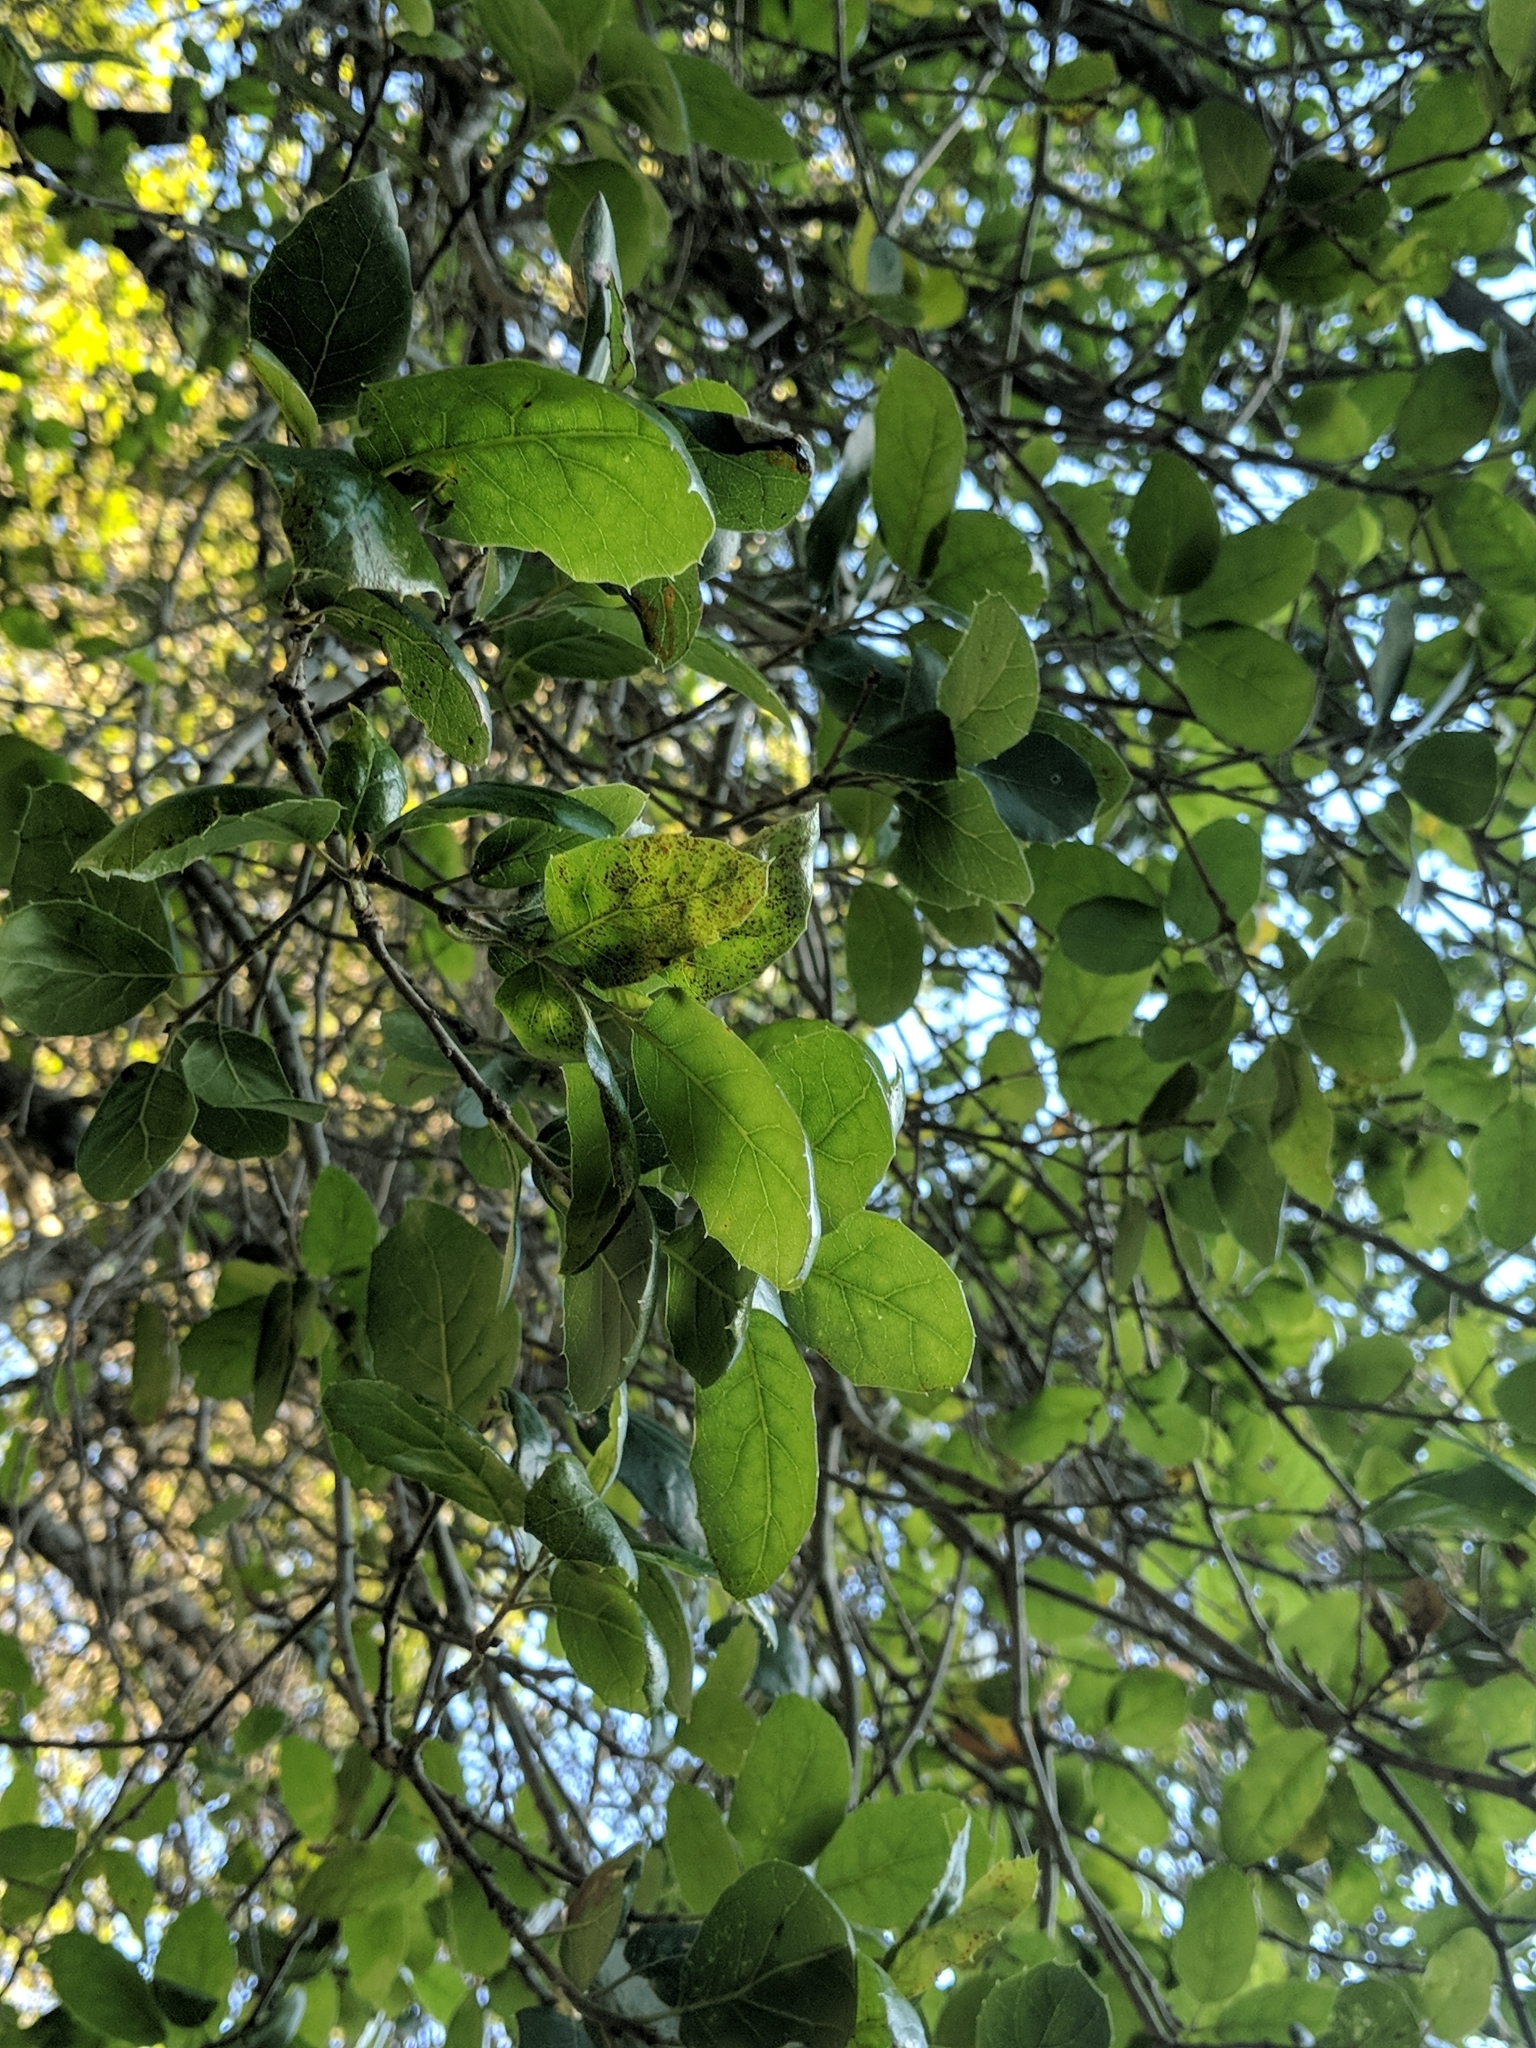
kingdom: Plantae
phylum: Tracheophyta
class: Magnoliopsida
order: Fagales
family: Fagaceae
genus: Quercus
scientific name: Quercus agrifolia
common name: California live oak
